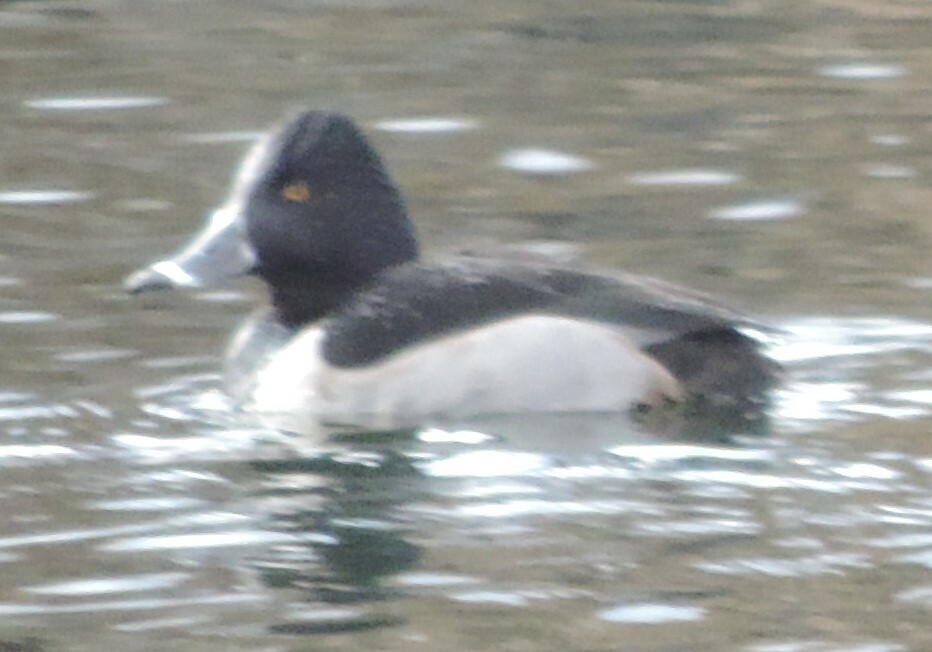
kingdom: Animalia
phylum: Chordata
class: Aves
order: Anseriformes
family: Anatidae
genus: Aythya
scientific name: Aythya collaris
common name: Ring-necked duck
